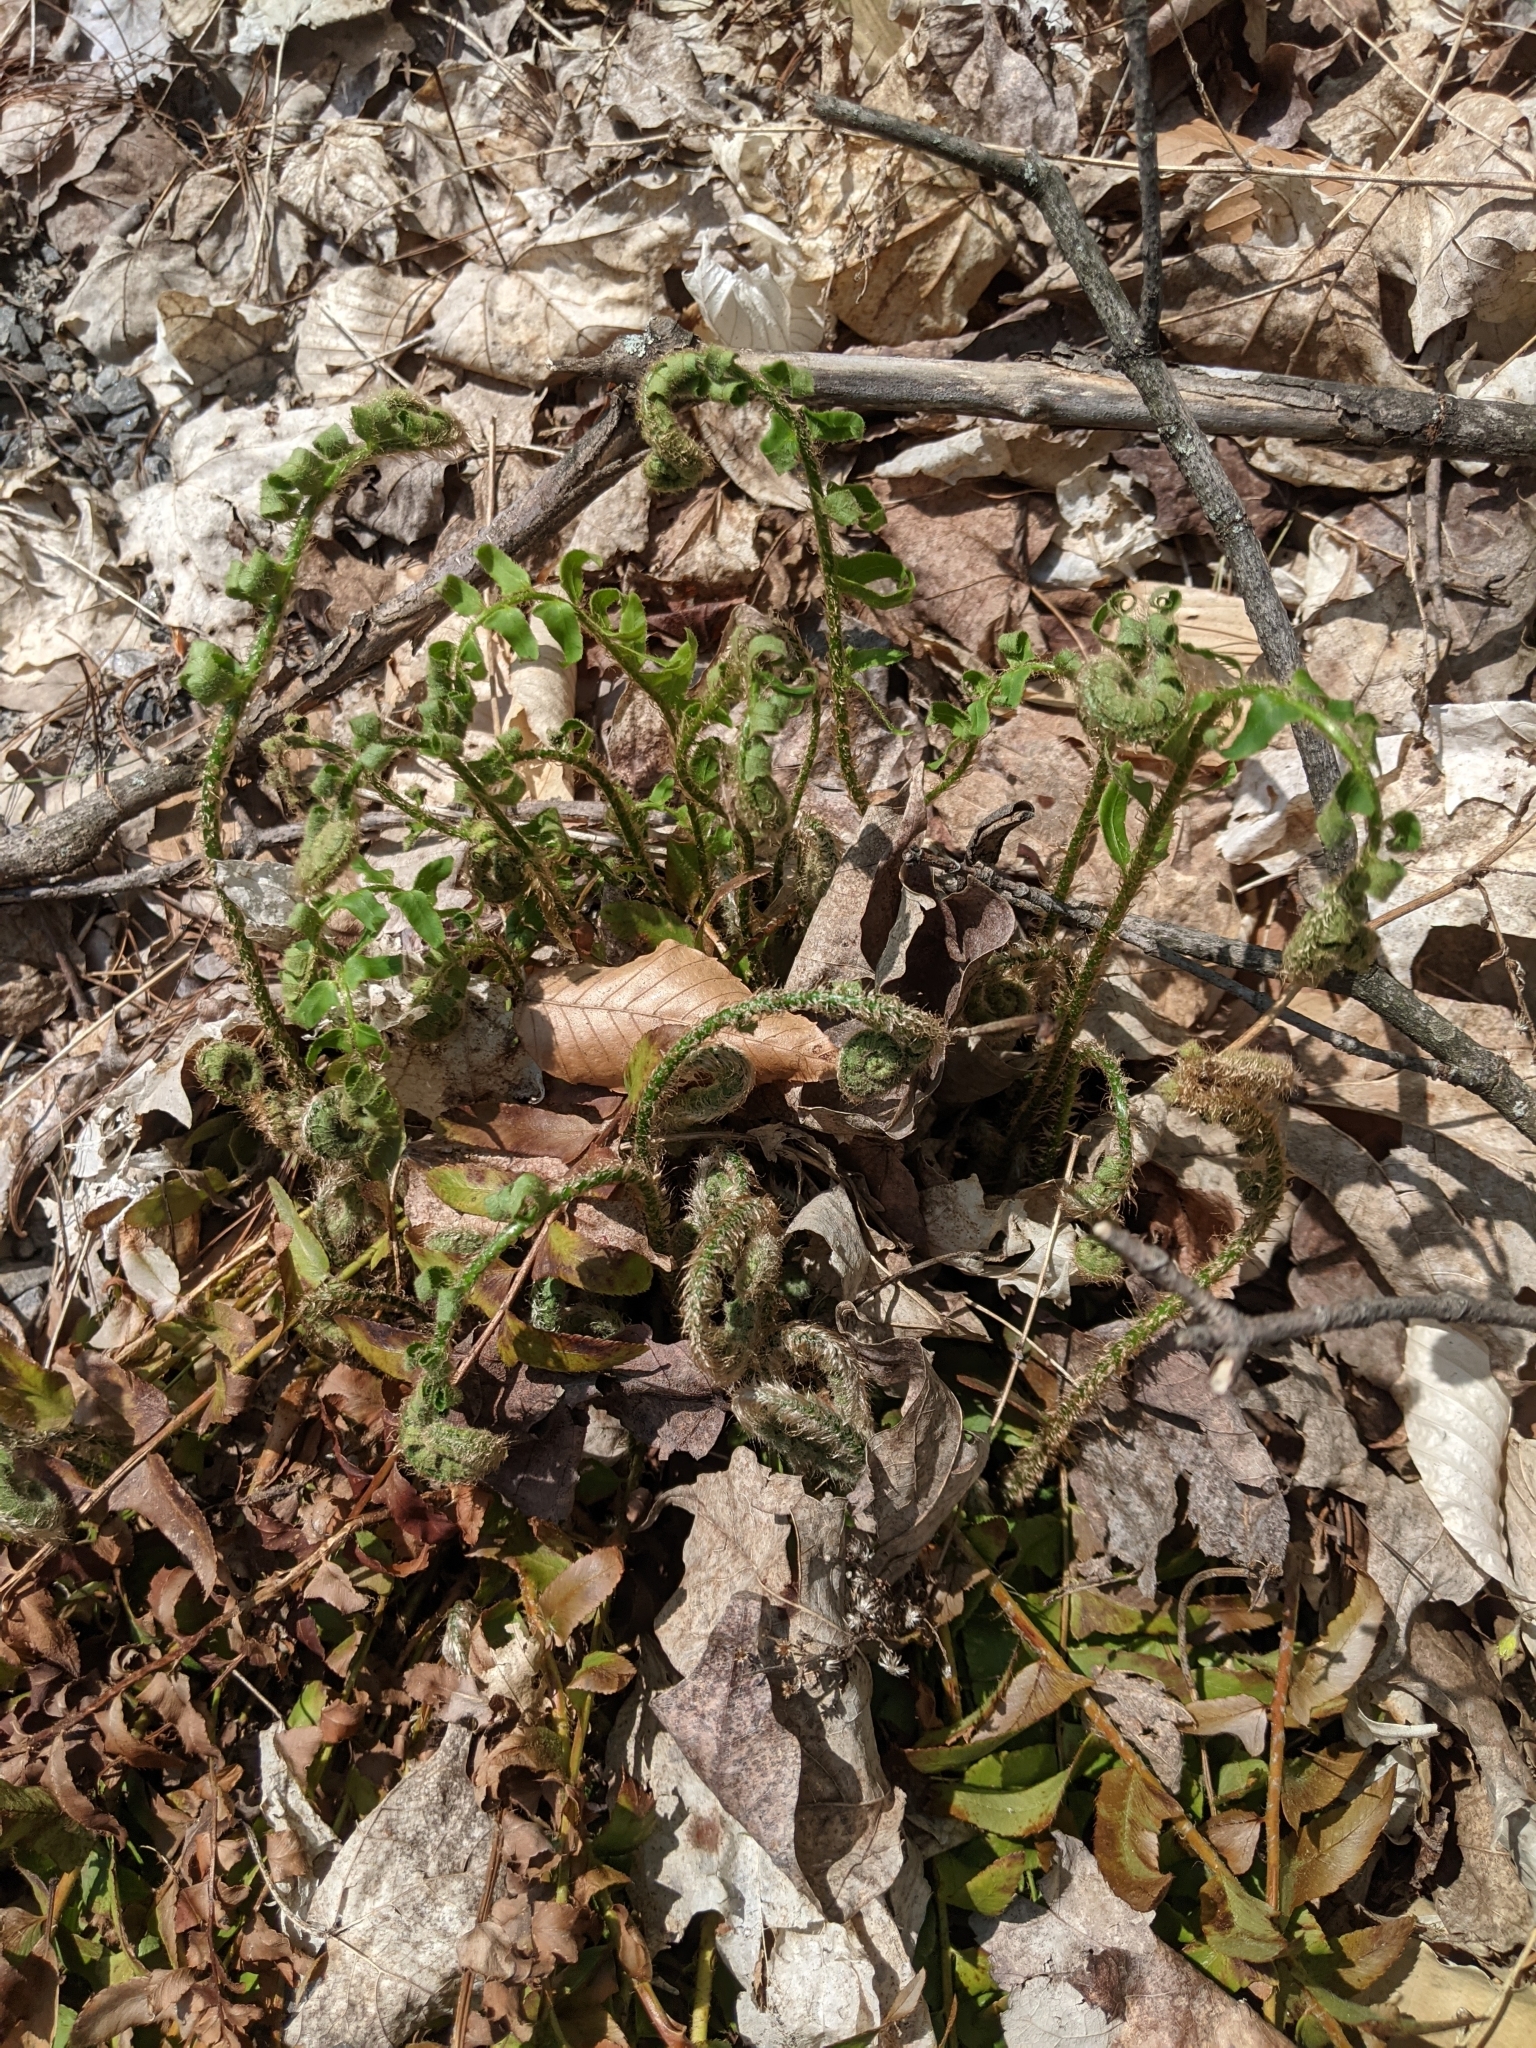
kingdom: Plantae
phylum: Tracheophyta
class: Polypodiopsida
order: Polypodiales
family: Dryopteridaceae
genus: Polystichum
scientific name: Polystichum acrostichoides
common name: Christmas fern
